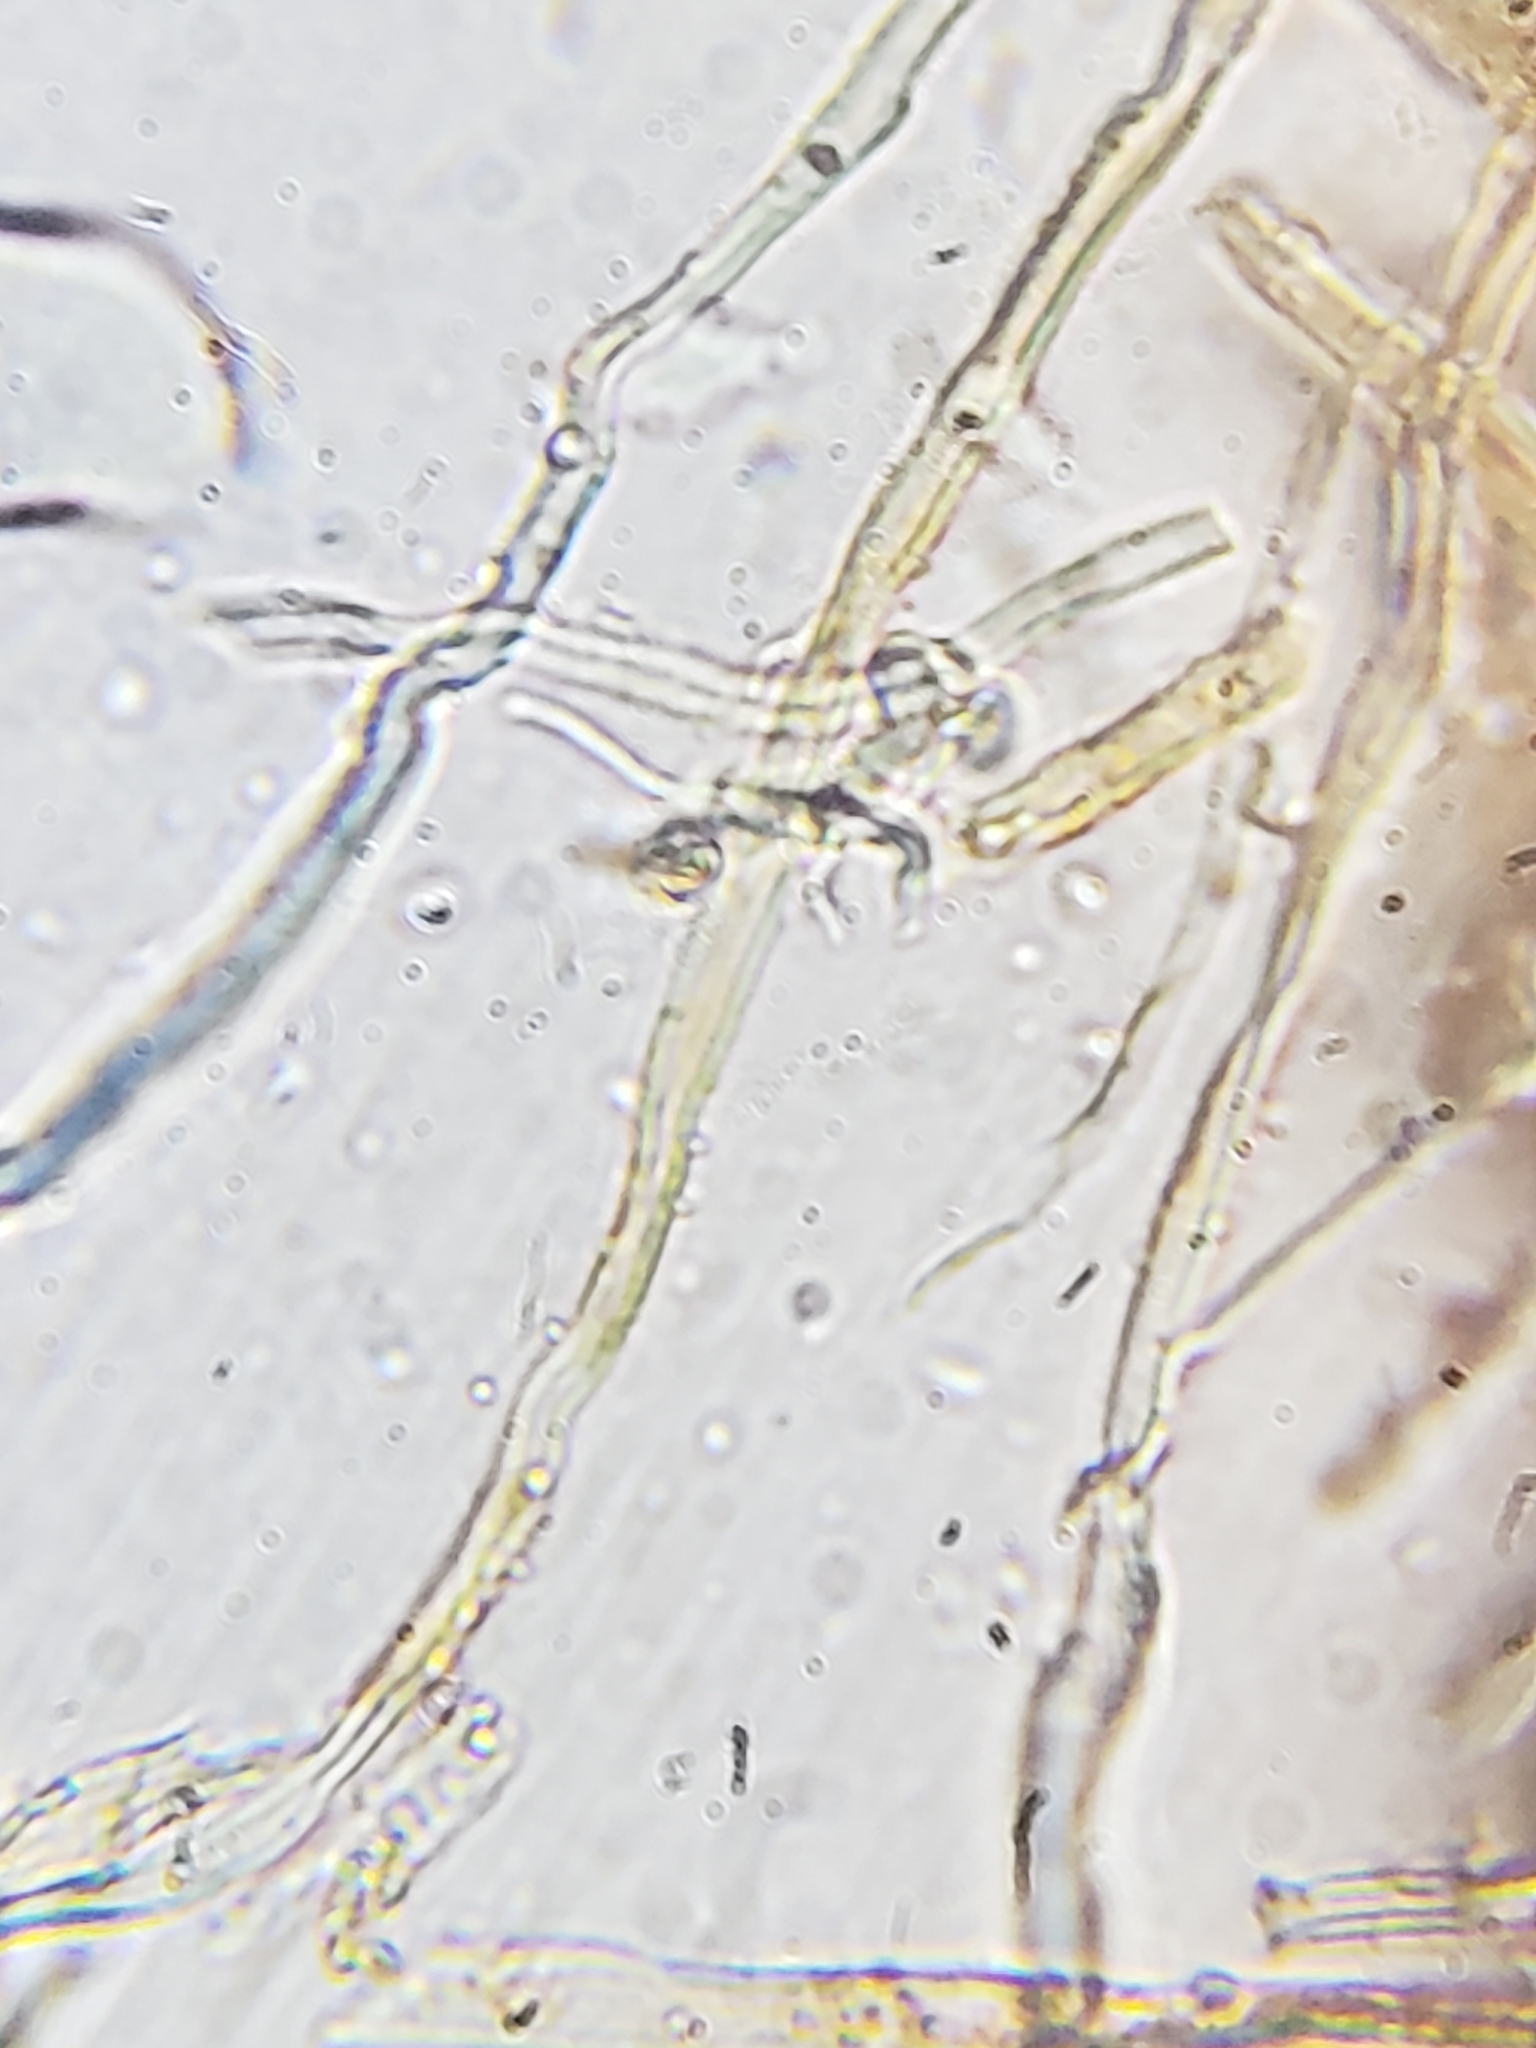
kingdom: Fungi
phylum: Basidiomycota
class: Agaricomycetes
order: Polyporales
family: Polyporaceae
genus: Trametes
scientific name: Trametes cinnabarina
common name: Northern cinnabar polypore
